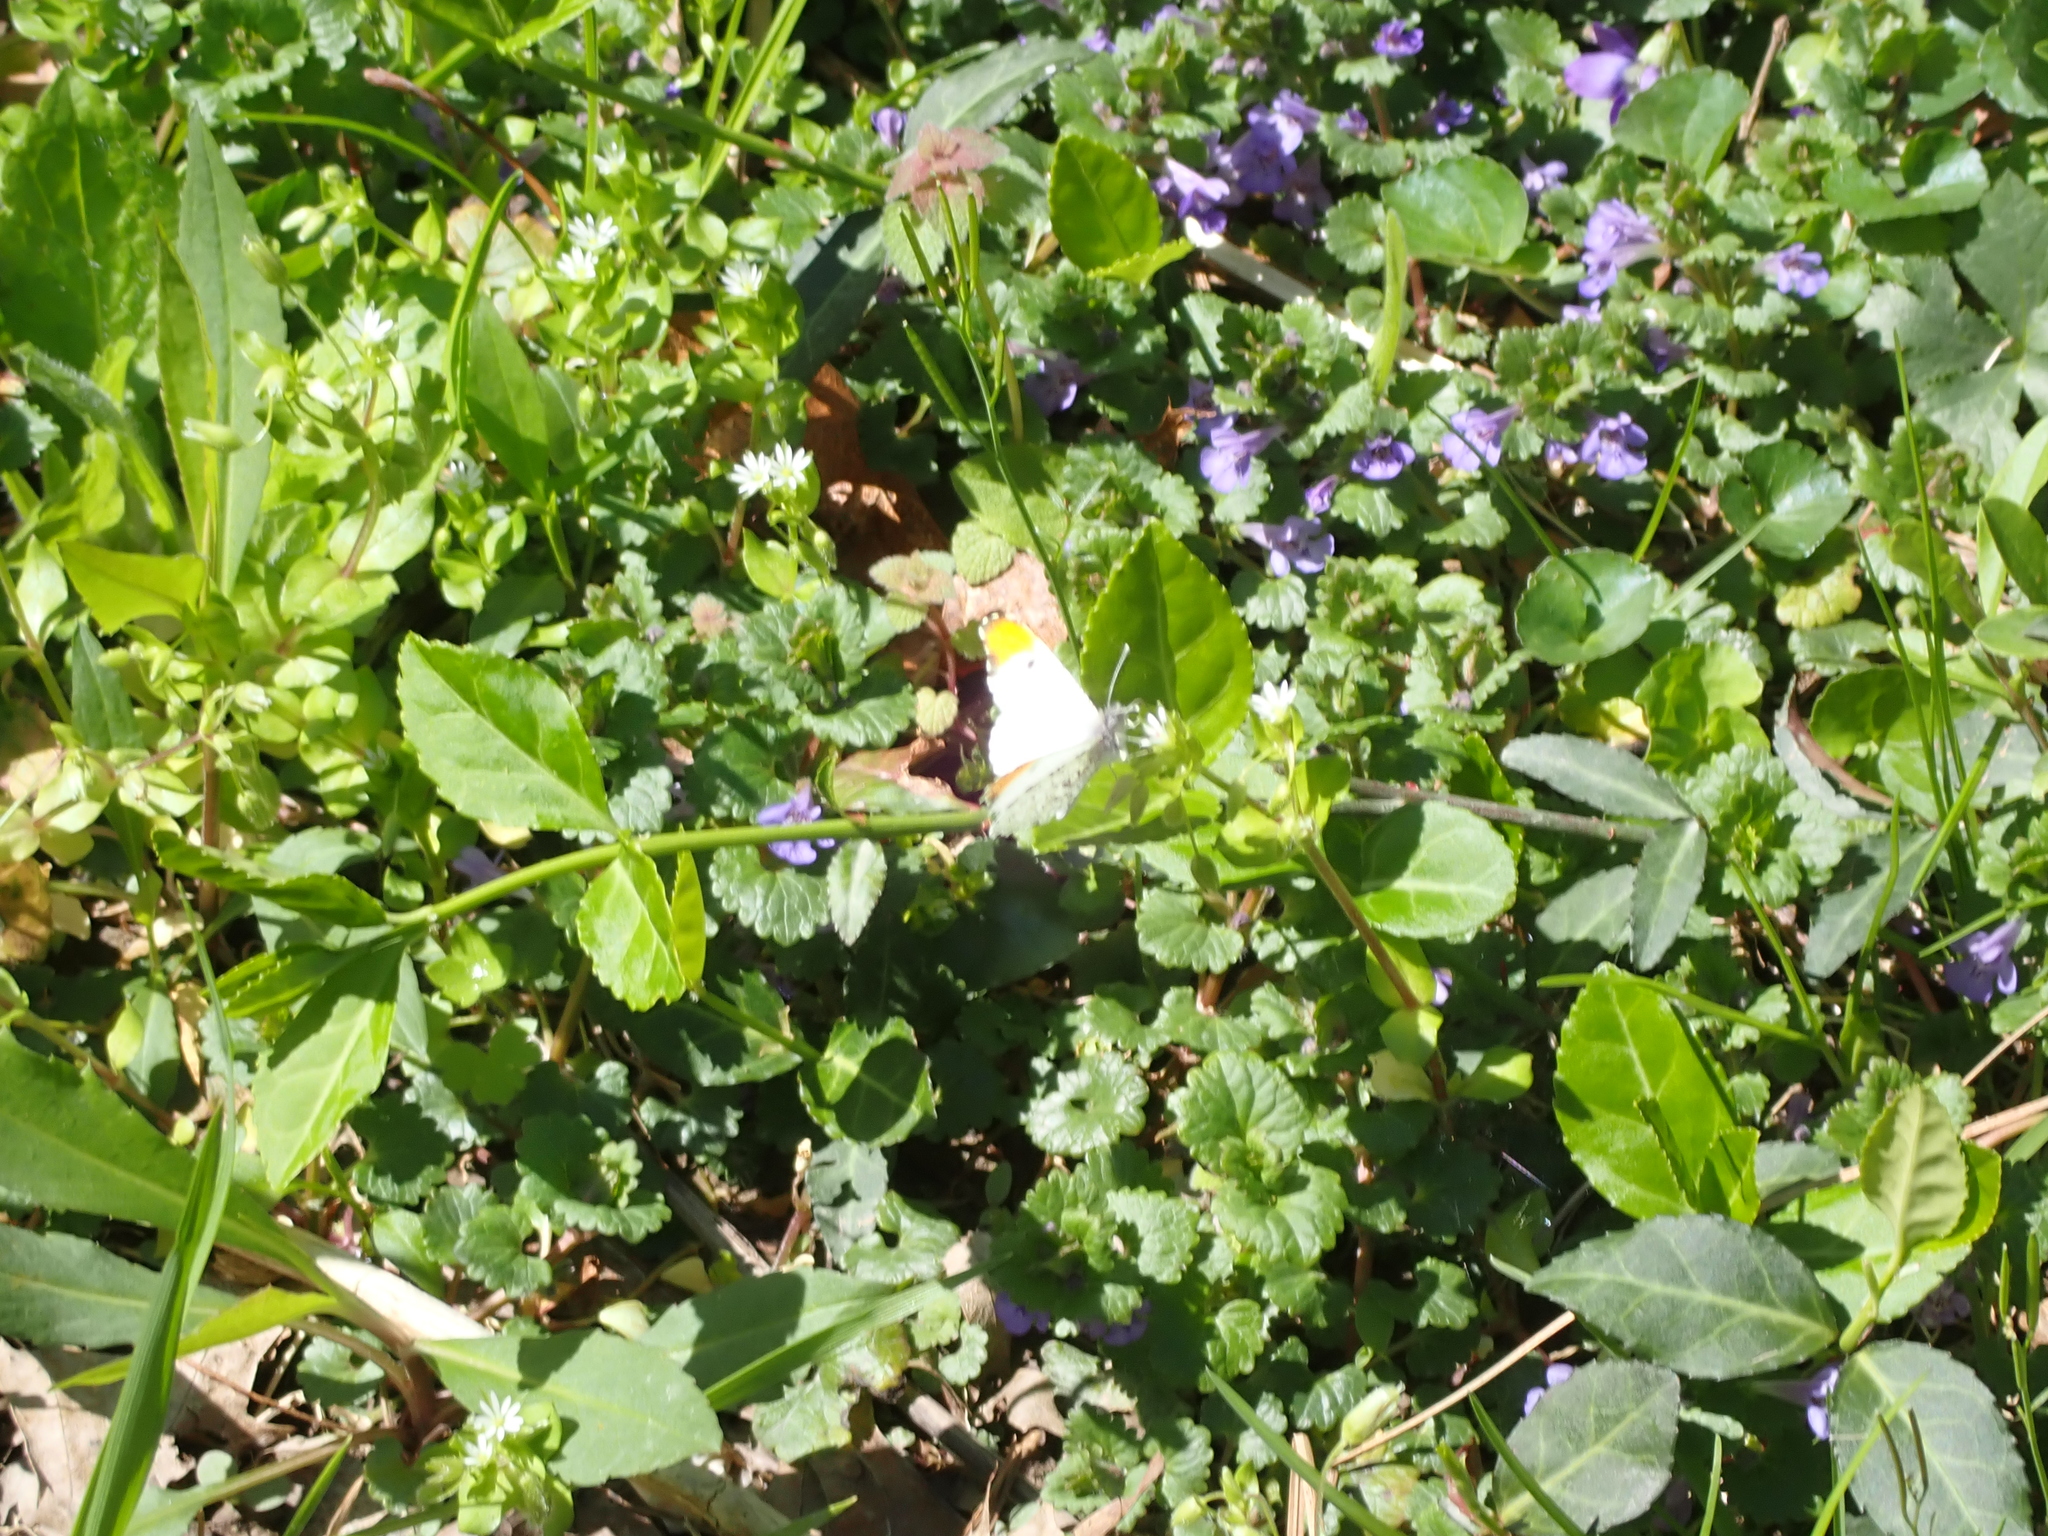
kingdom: Animalia
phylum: Arthropoda
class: Insecta
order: Lepidoptera
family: Pieridae
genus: Anthocharis
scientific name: Anthocharis midea
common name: Falcate orangetip
